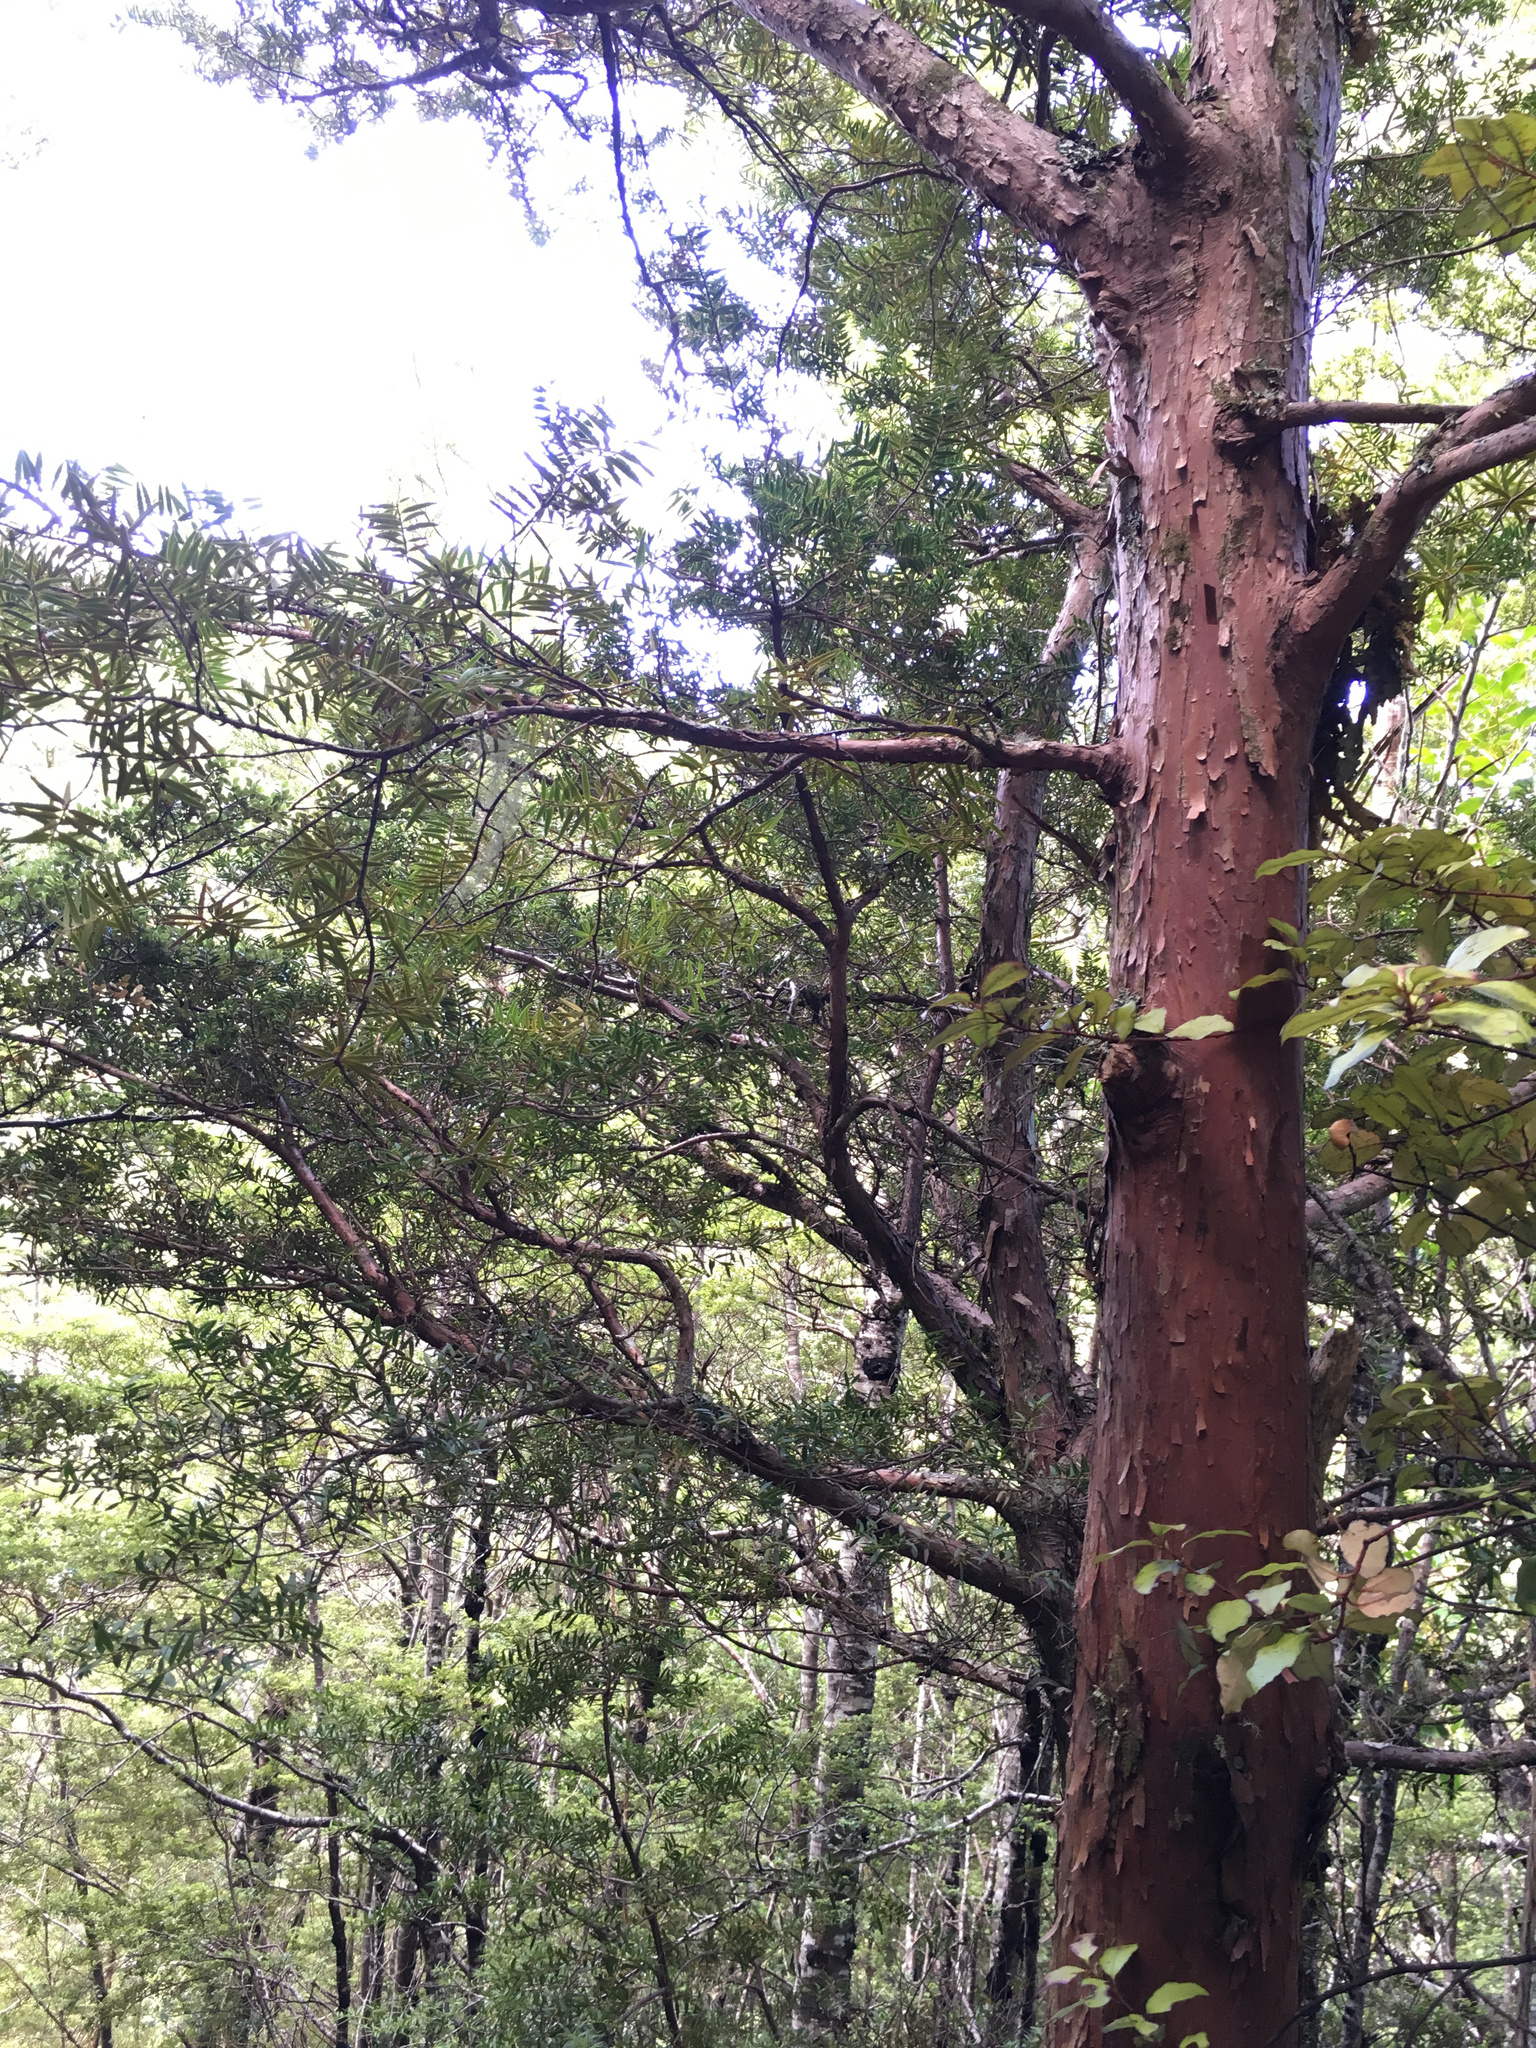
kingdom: Plantae
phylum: Tracheophyta
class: Pinopsida
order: Pinales
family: Podocarpaceae
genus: Podocarpus
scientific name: Podocarpus totara
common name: Totara
